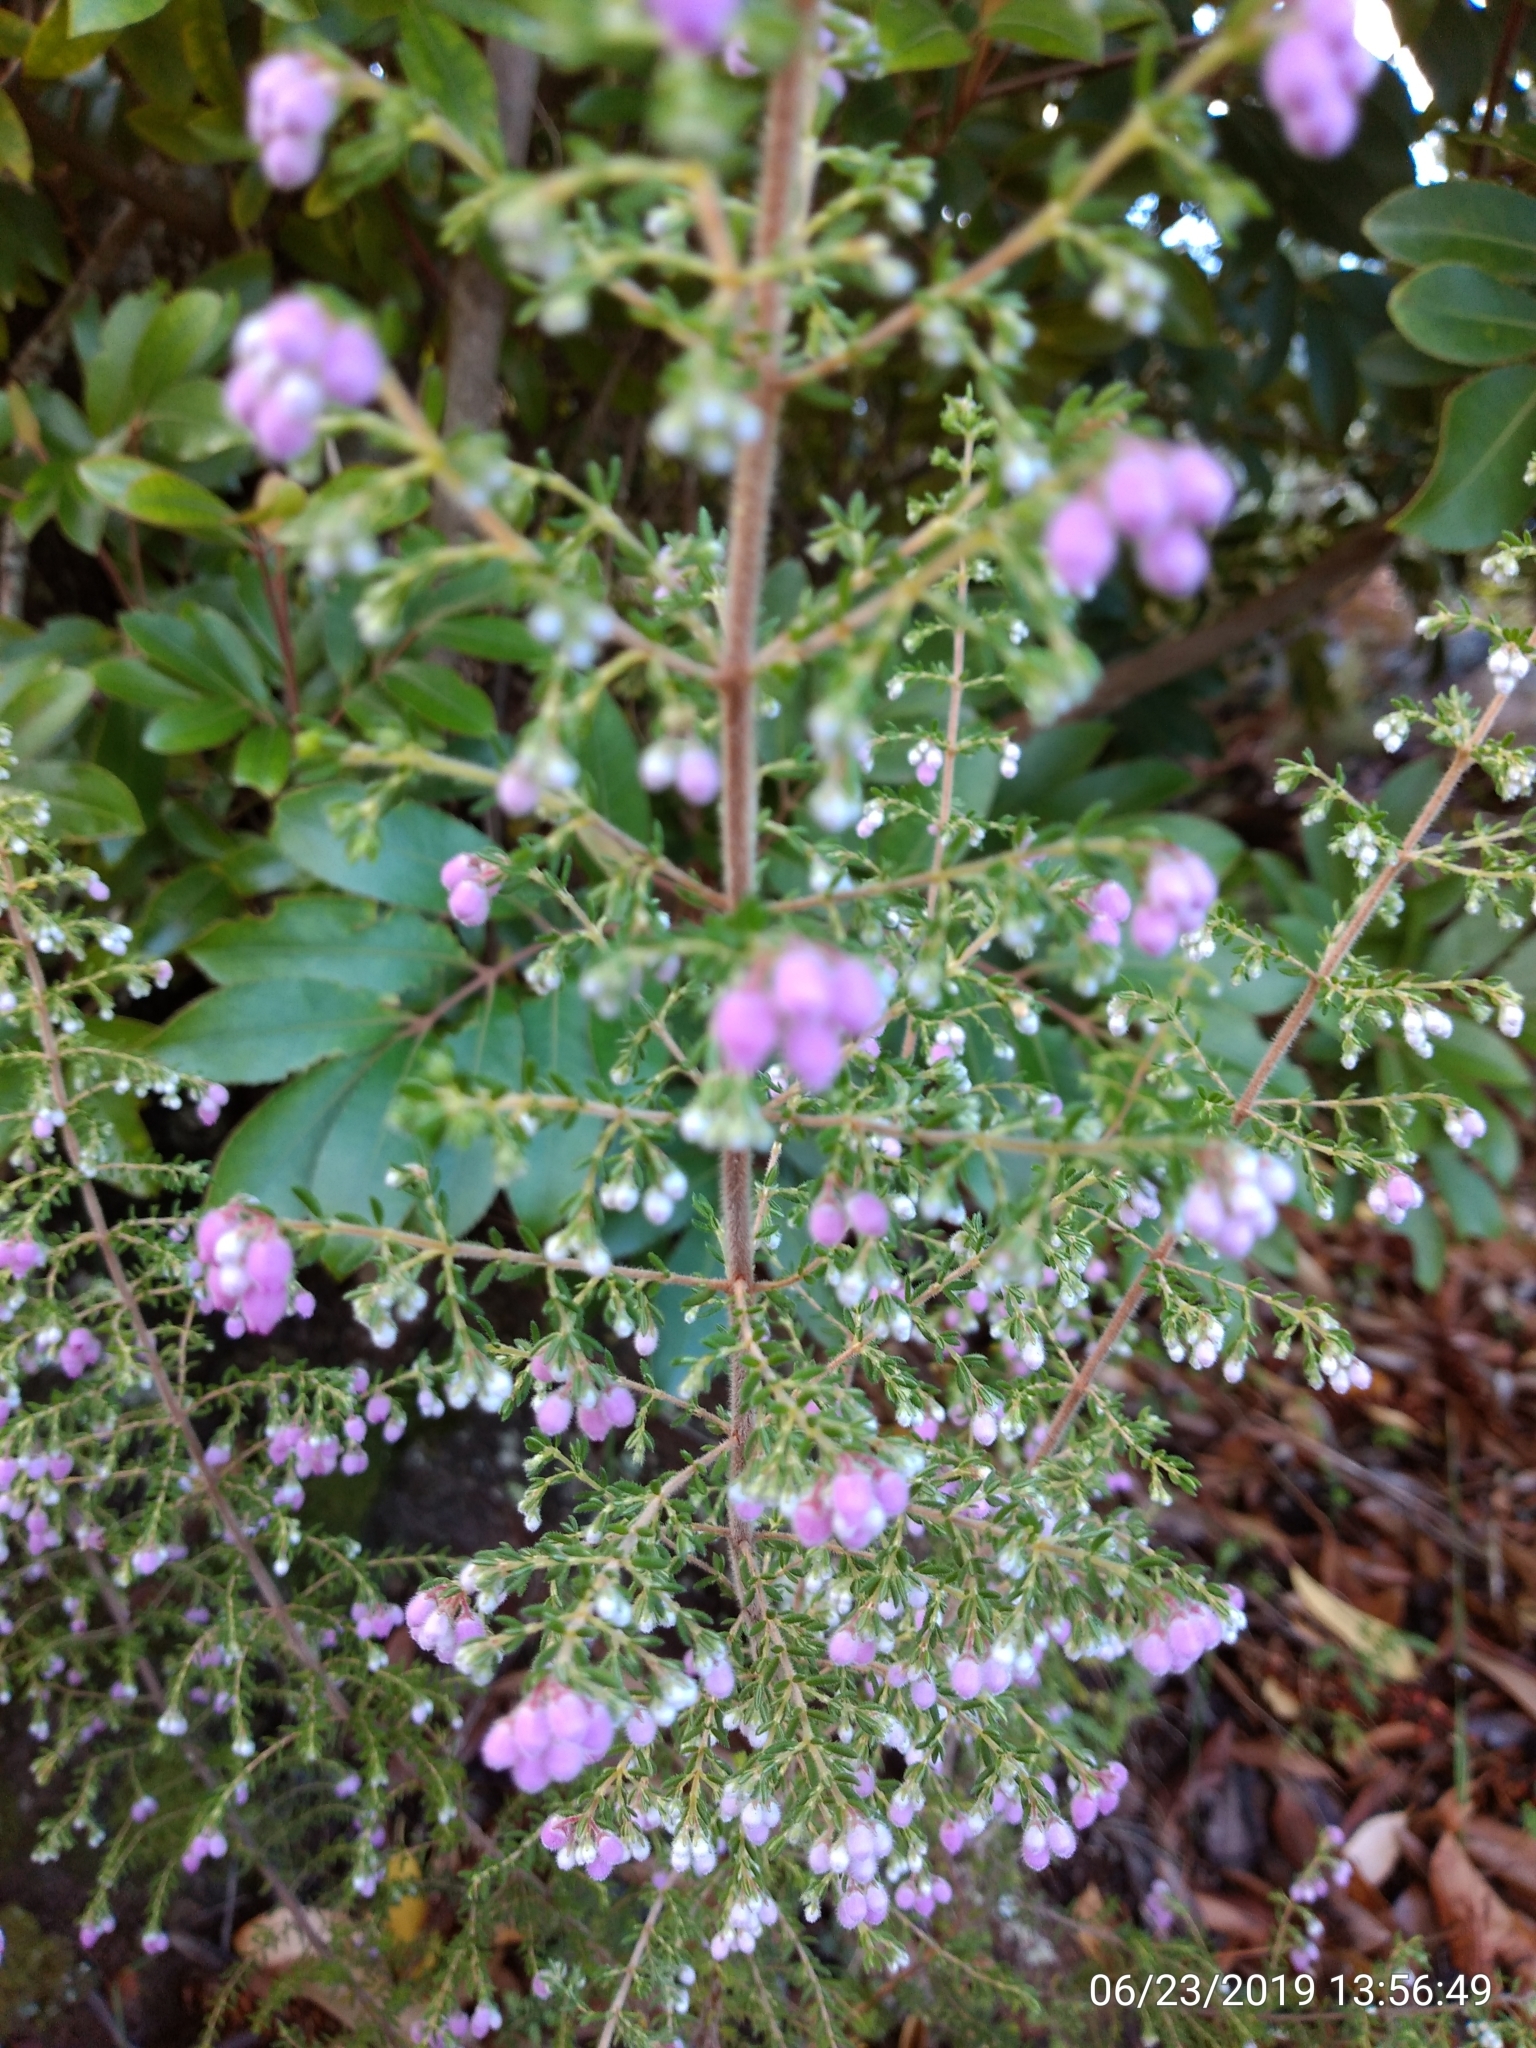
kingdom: Plantae
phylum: Tracheophyta
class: Magnoliopsida
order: Ericales
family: Ericaceae
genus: Erica
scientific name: Erica hirtiflora
